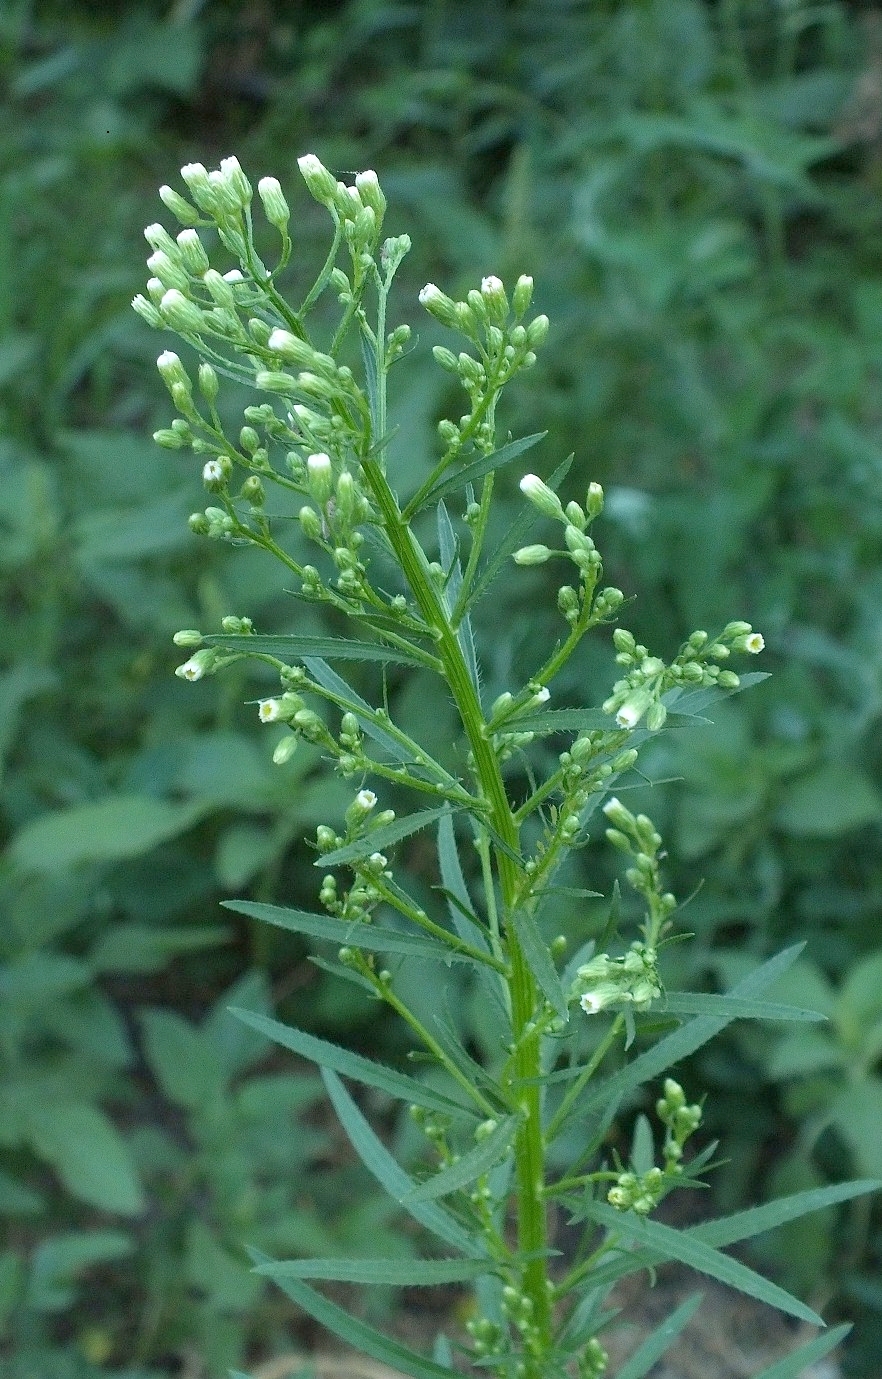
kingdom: Plantae
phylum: Tracheophyta
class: Magnoliopsida
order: Asterales
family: Asteraceae
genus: Erigeron
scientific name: Erigeron canadensis
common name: Canadian fleabane
